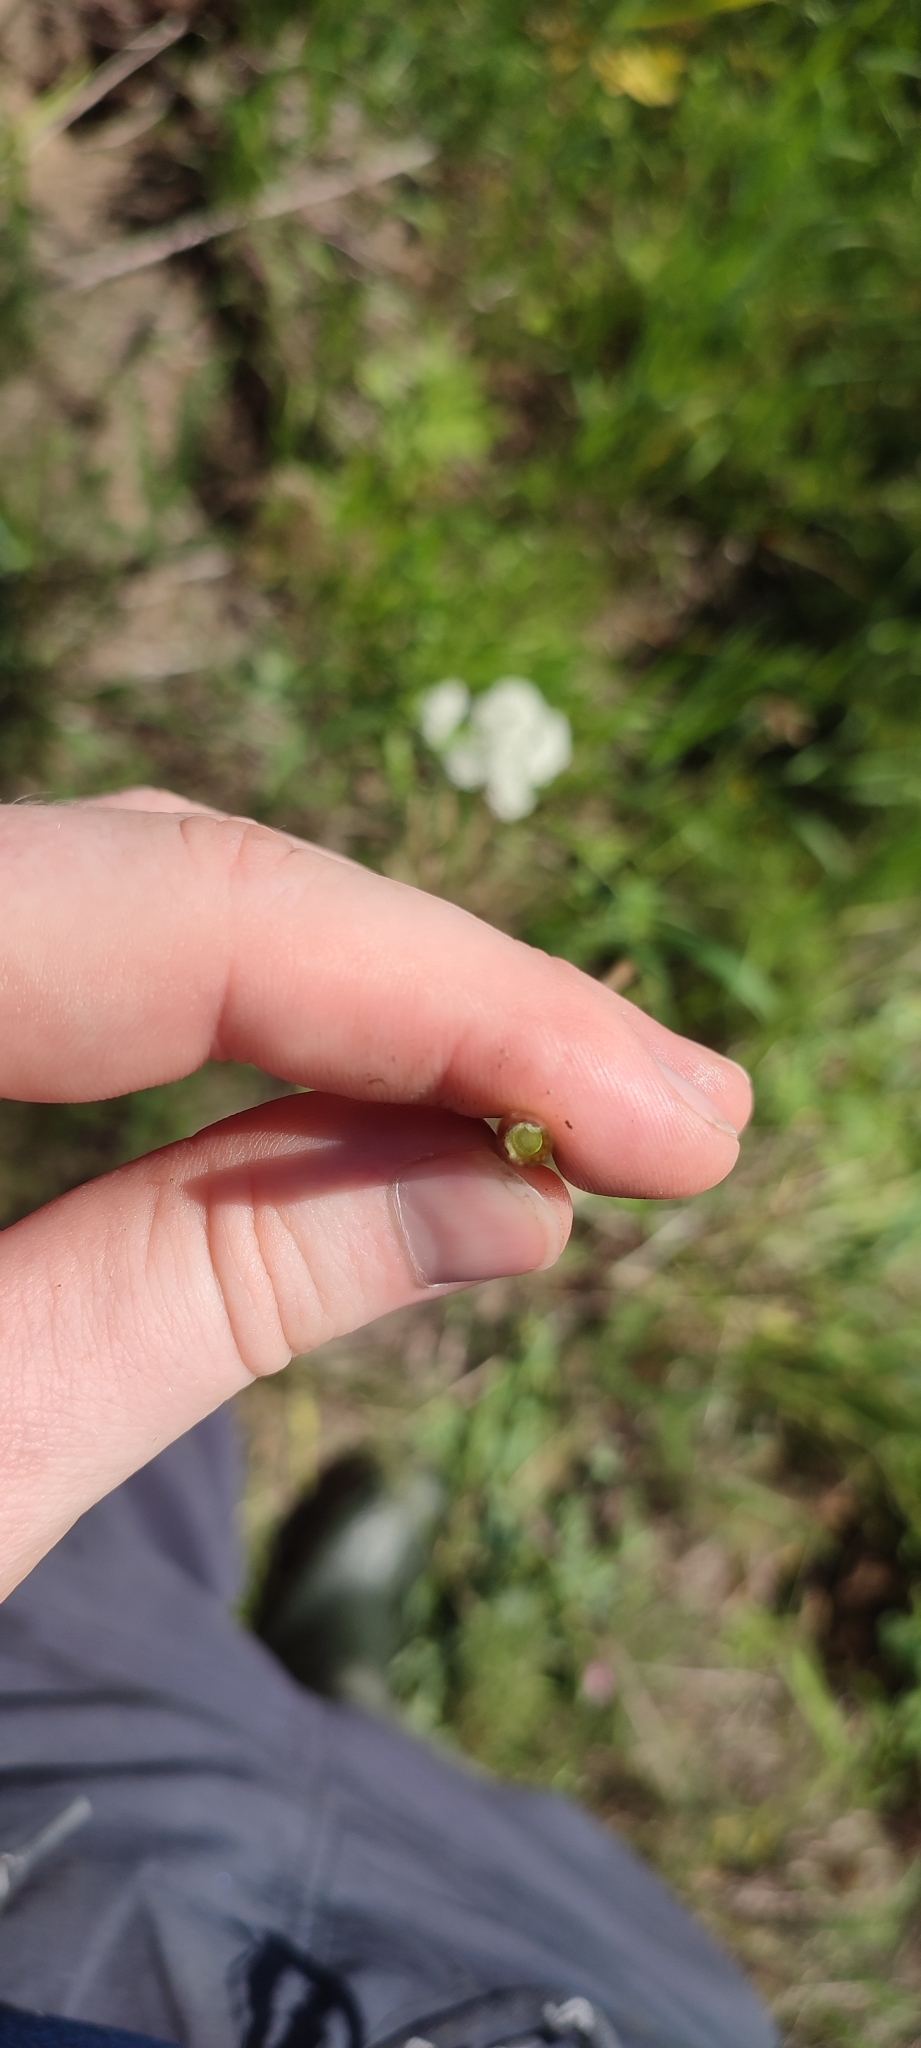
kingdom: Plantae
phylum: Tracheophyta
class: Polypodiopsida
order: Equisetales
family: Equisetaceae
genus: Equisetum
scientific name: Equisetum fluviatile
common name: Water horsetail
